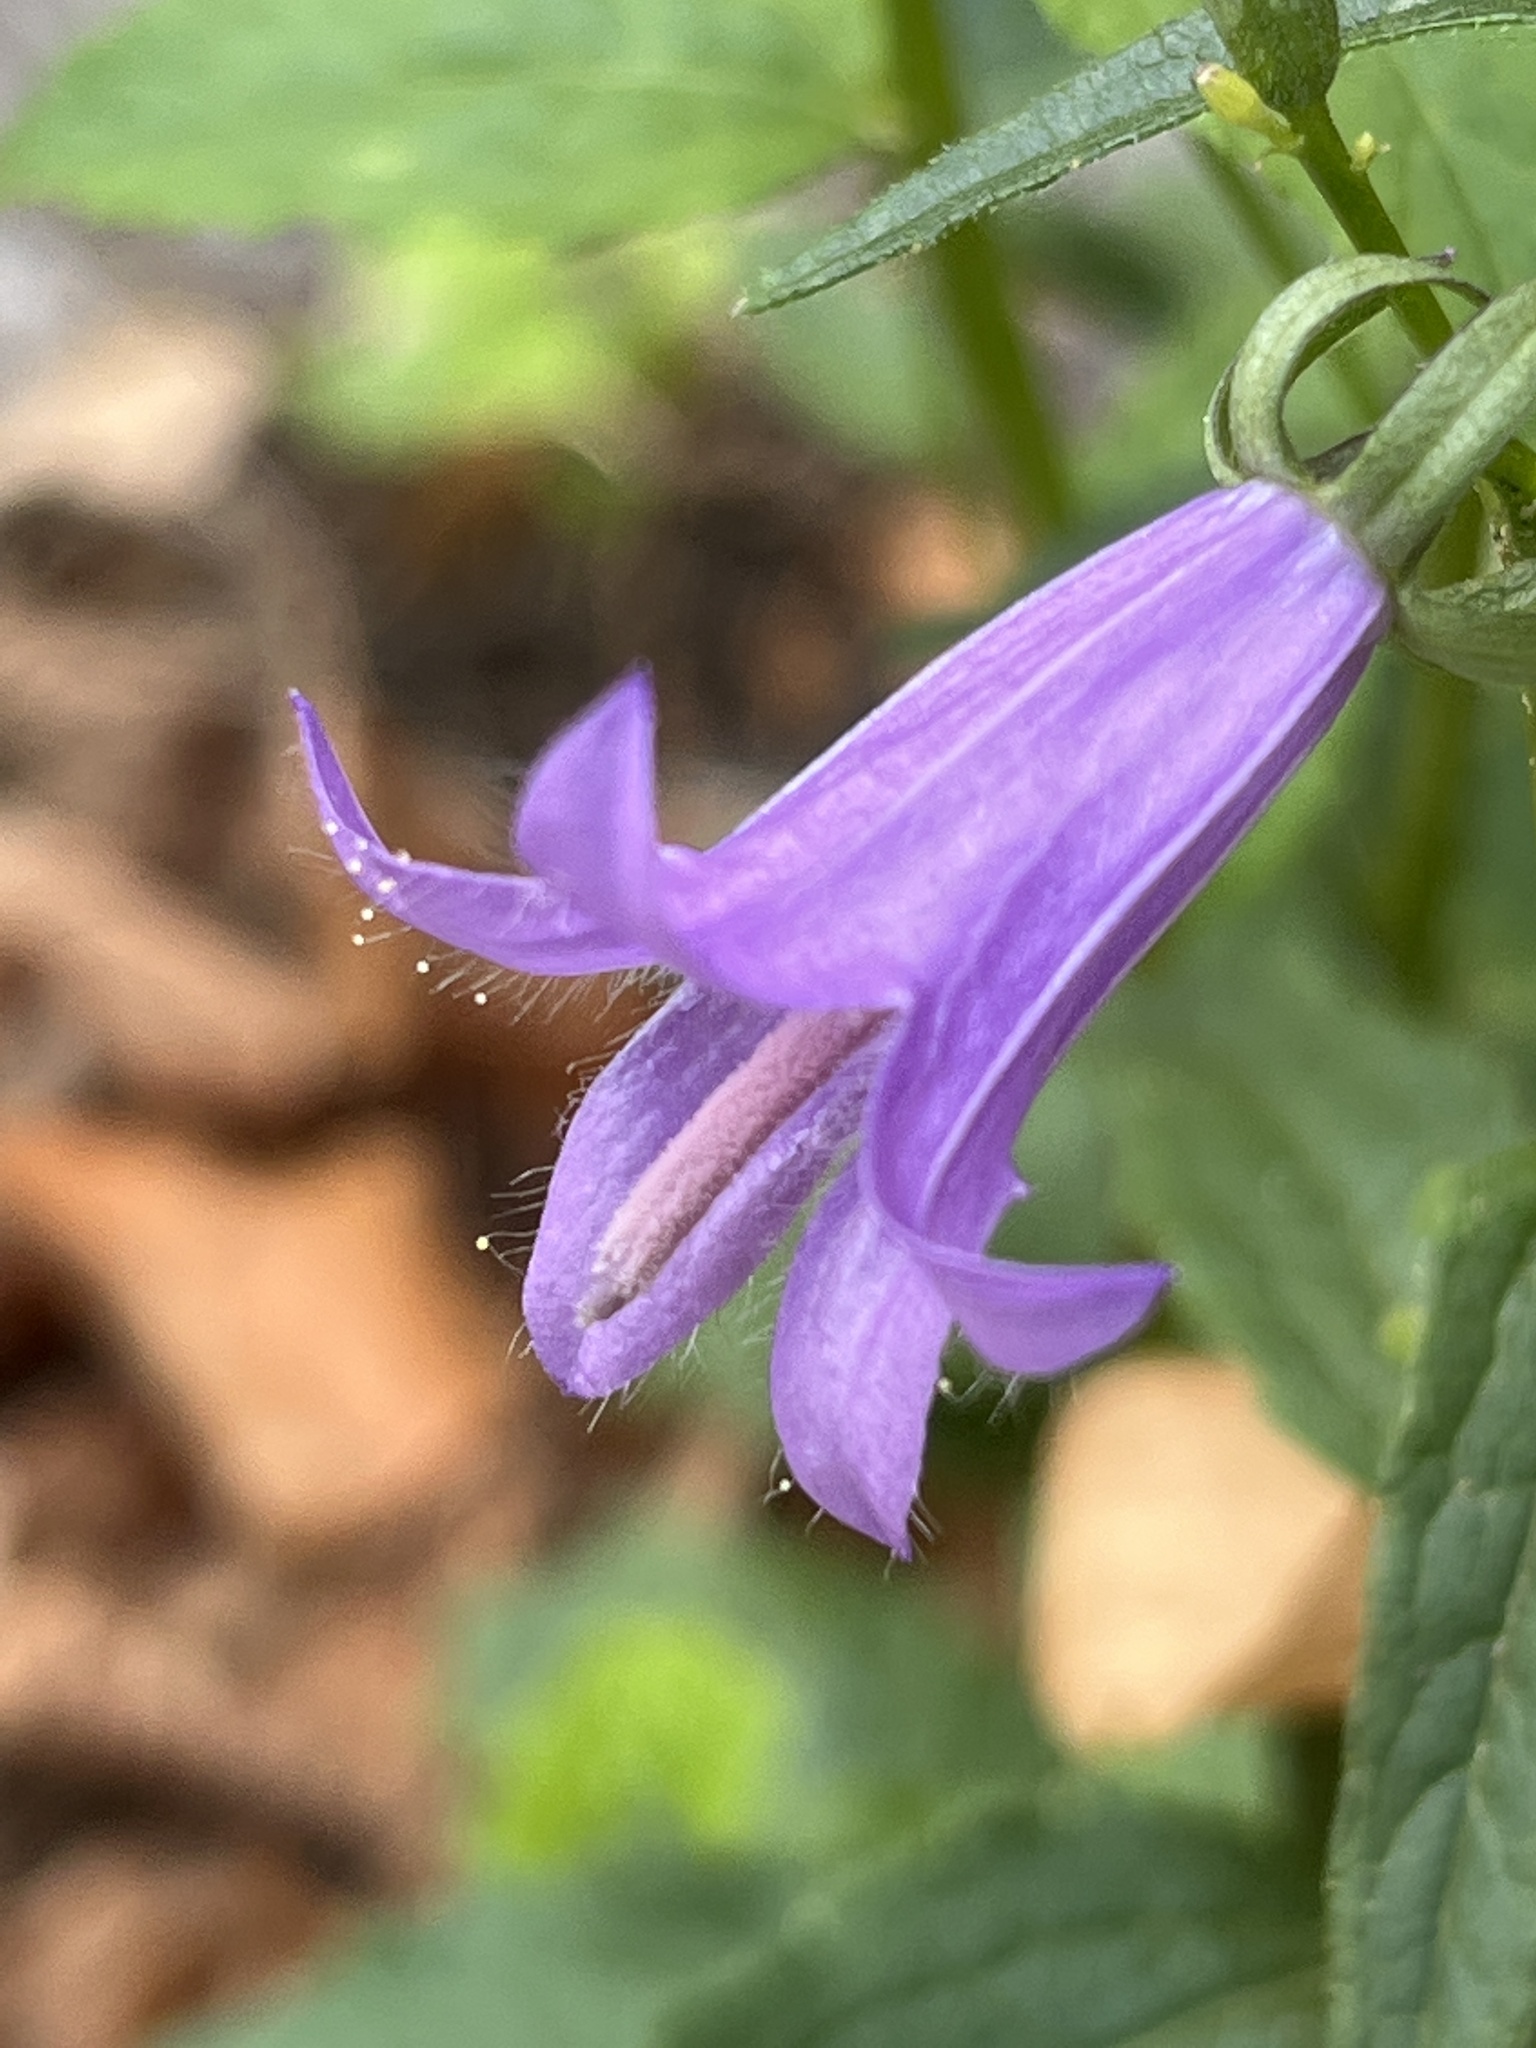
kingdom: Plantae
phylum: Tracheophyta
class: Magnoliopsida
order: Asterales
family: Campanulaceae
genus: Campanula
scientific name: Campanula rapunculoides
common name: Creeping bellflower
